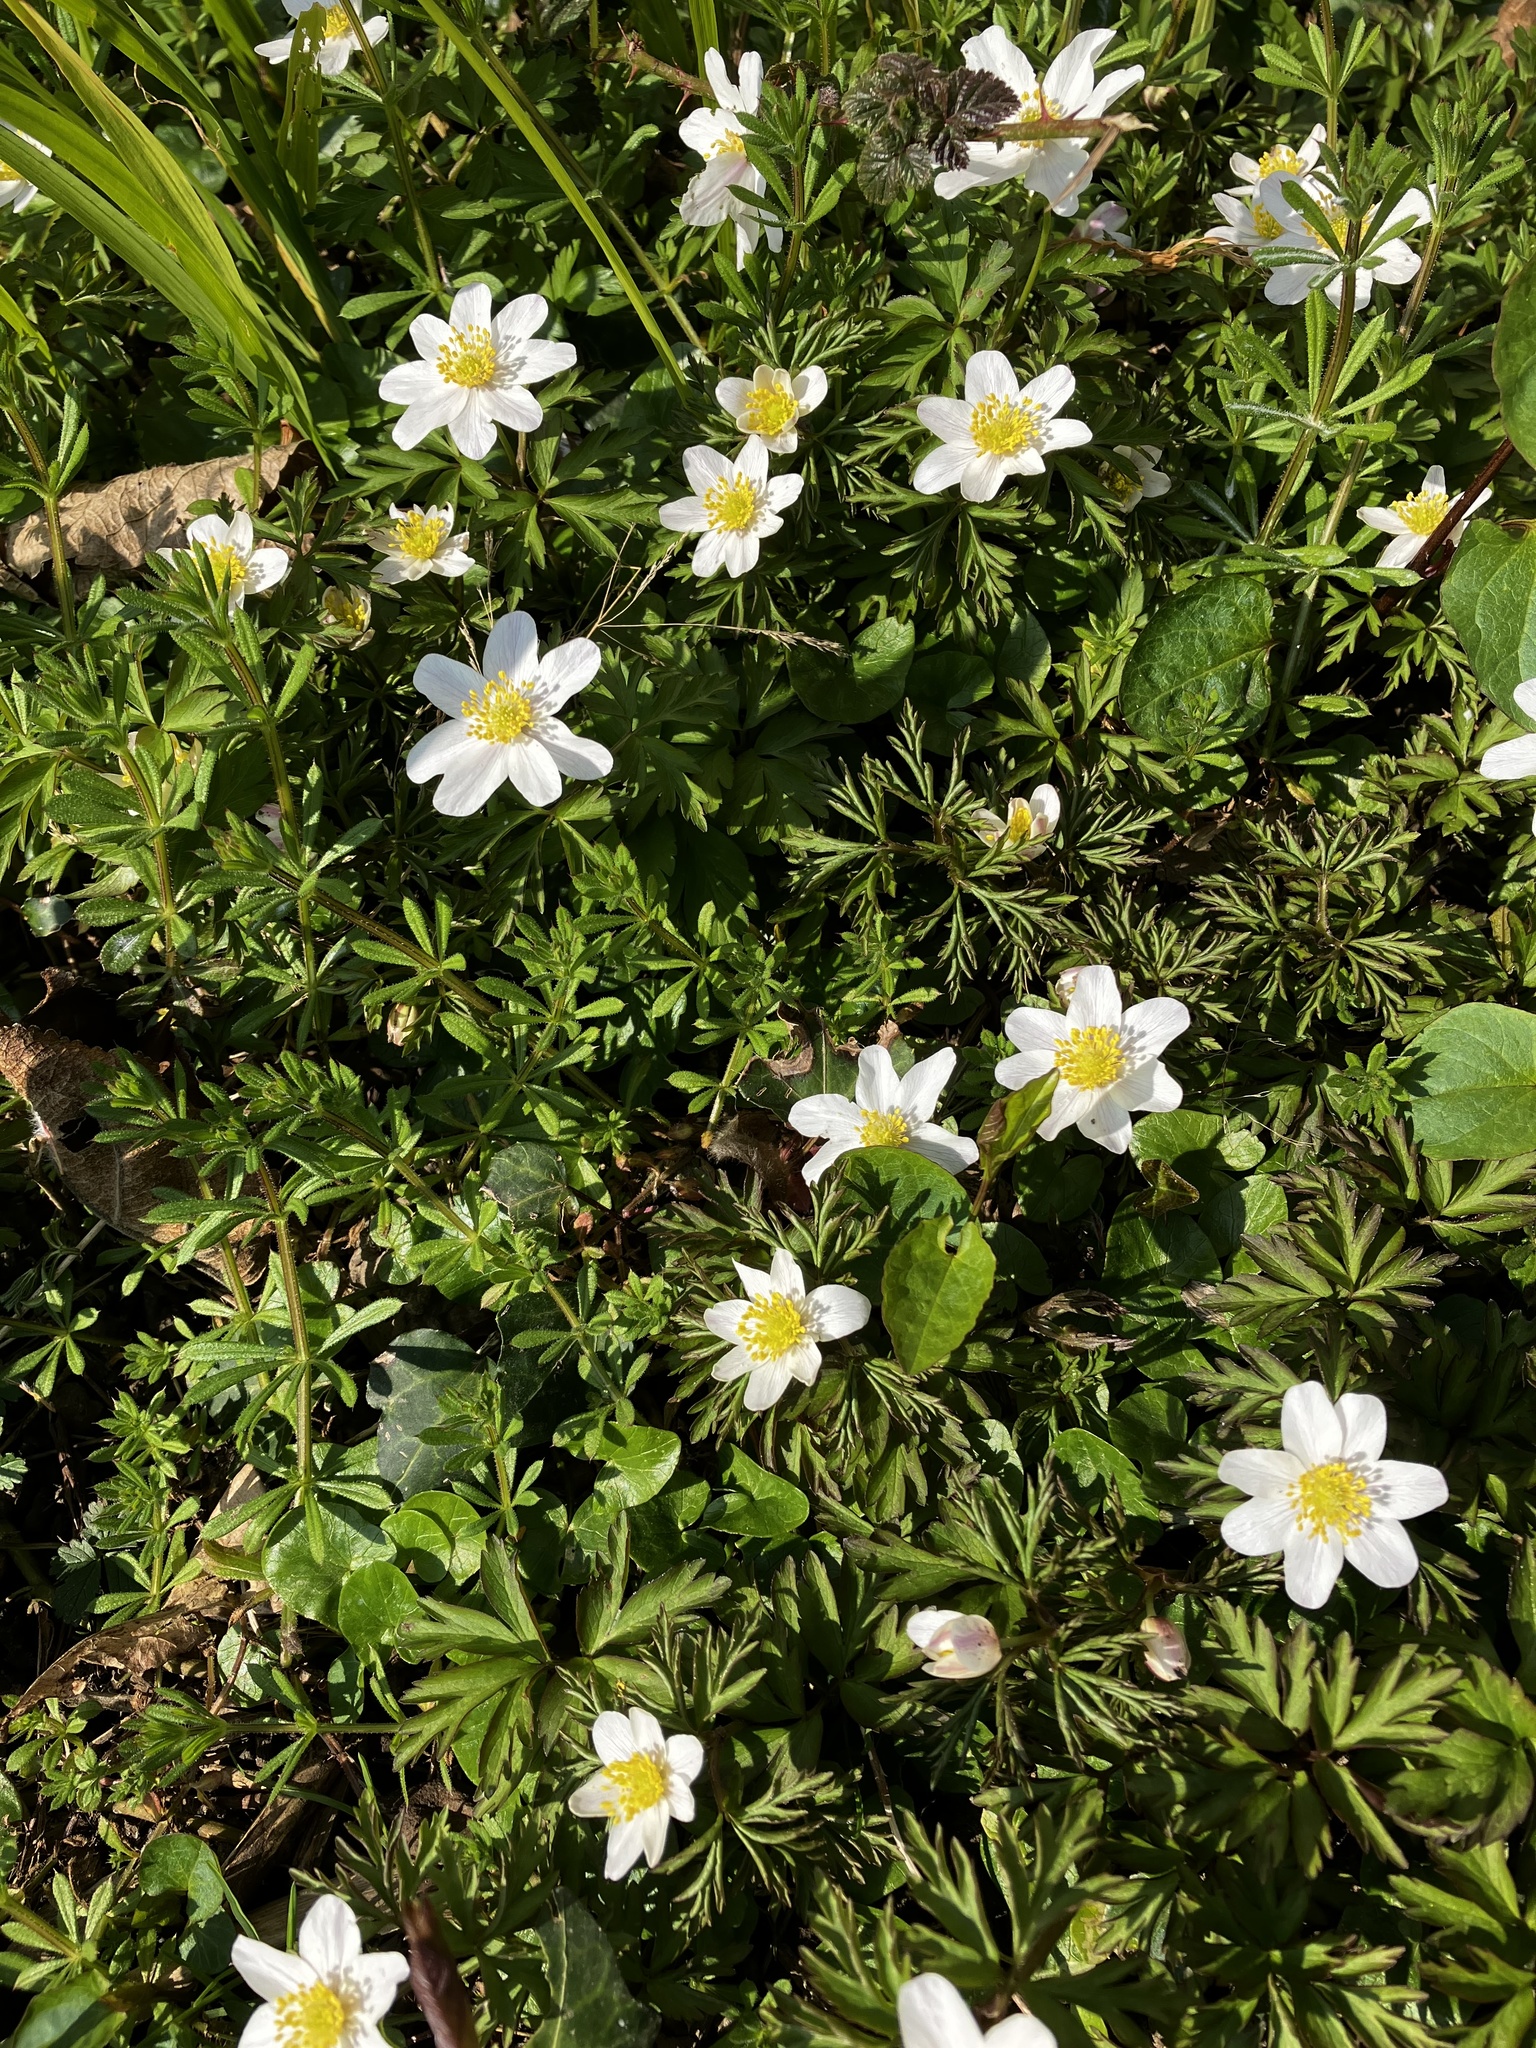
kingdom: Plantae
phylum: Tracheophyta
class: Magnoliopsida
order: Ranunculales
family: Ranunculaceae
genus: Anemone
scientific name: Anemone nemorosa
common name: Wood anemone
